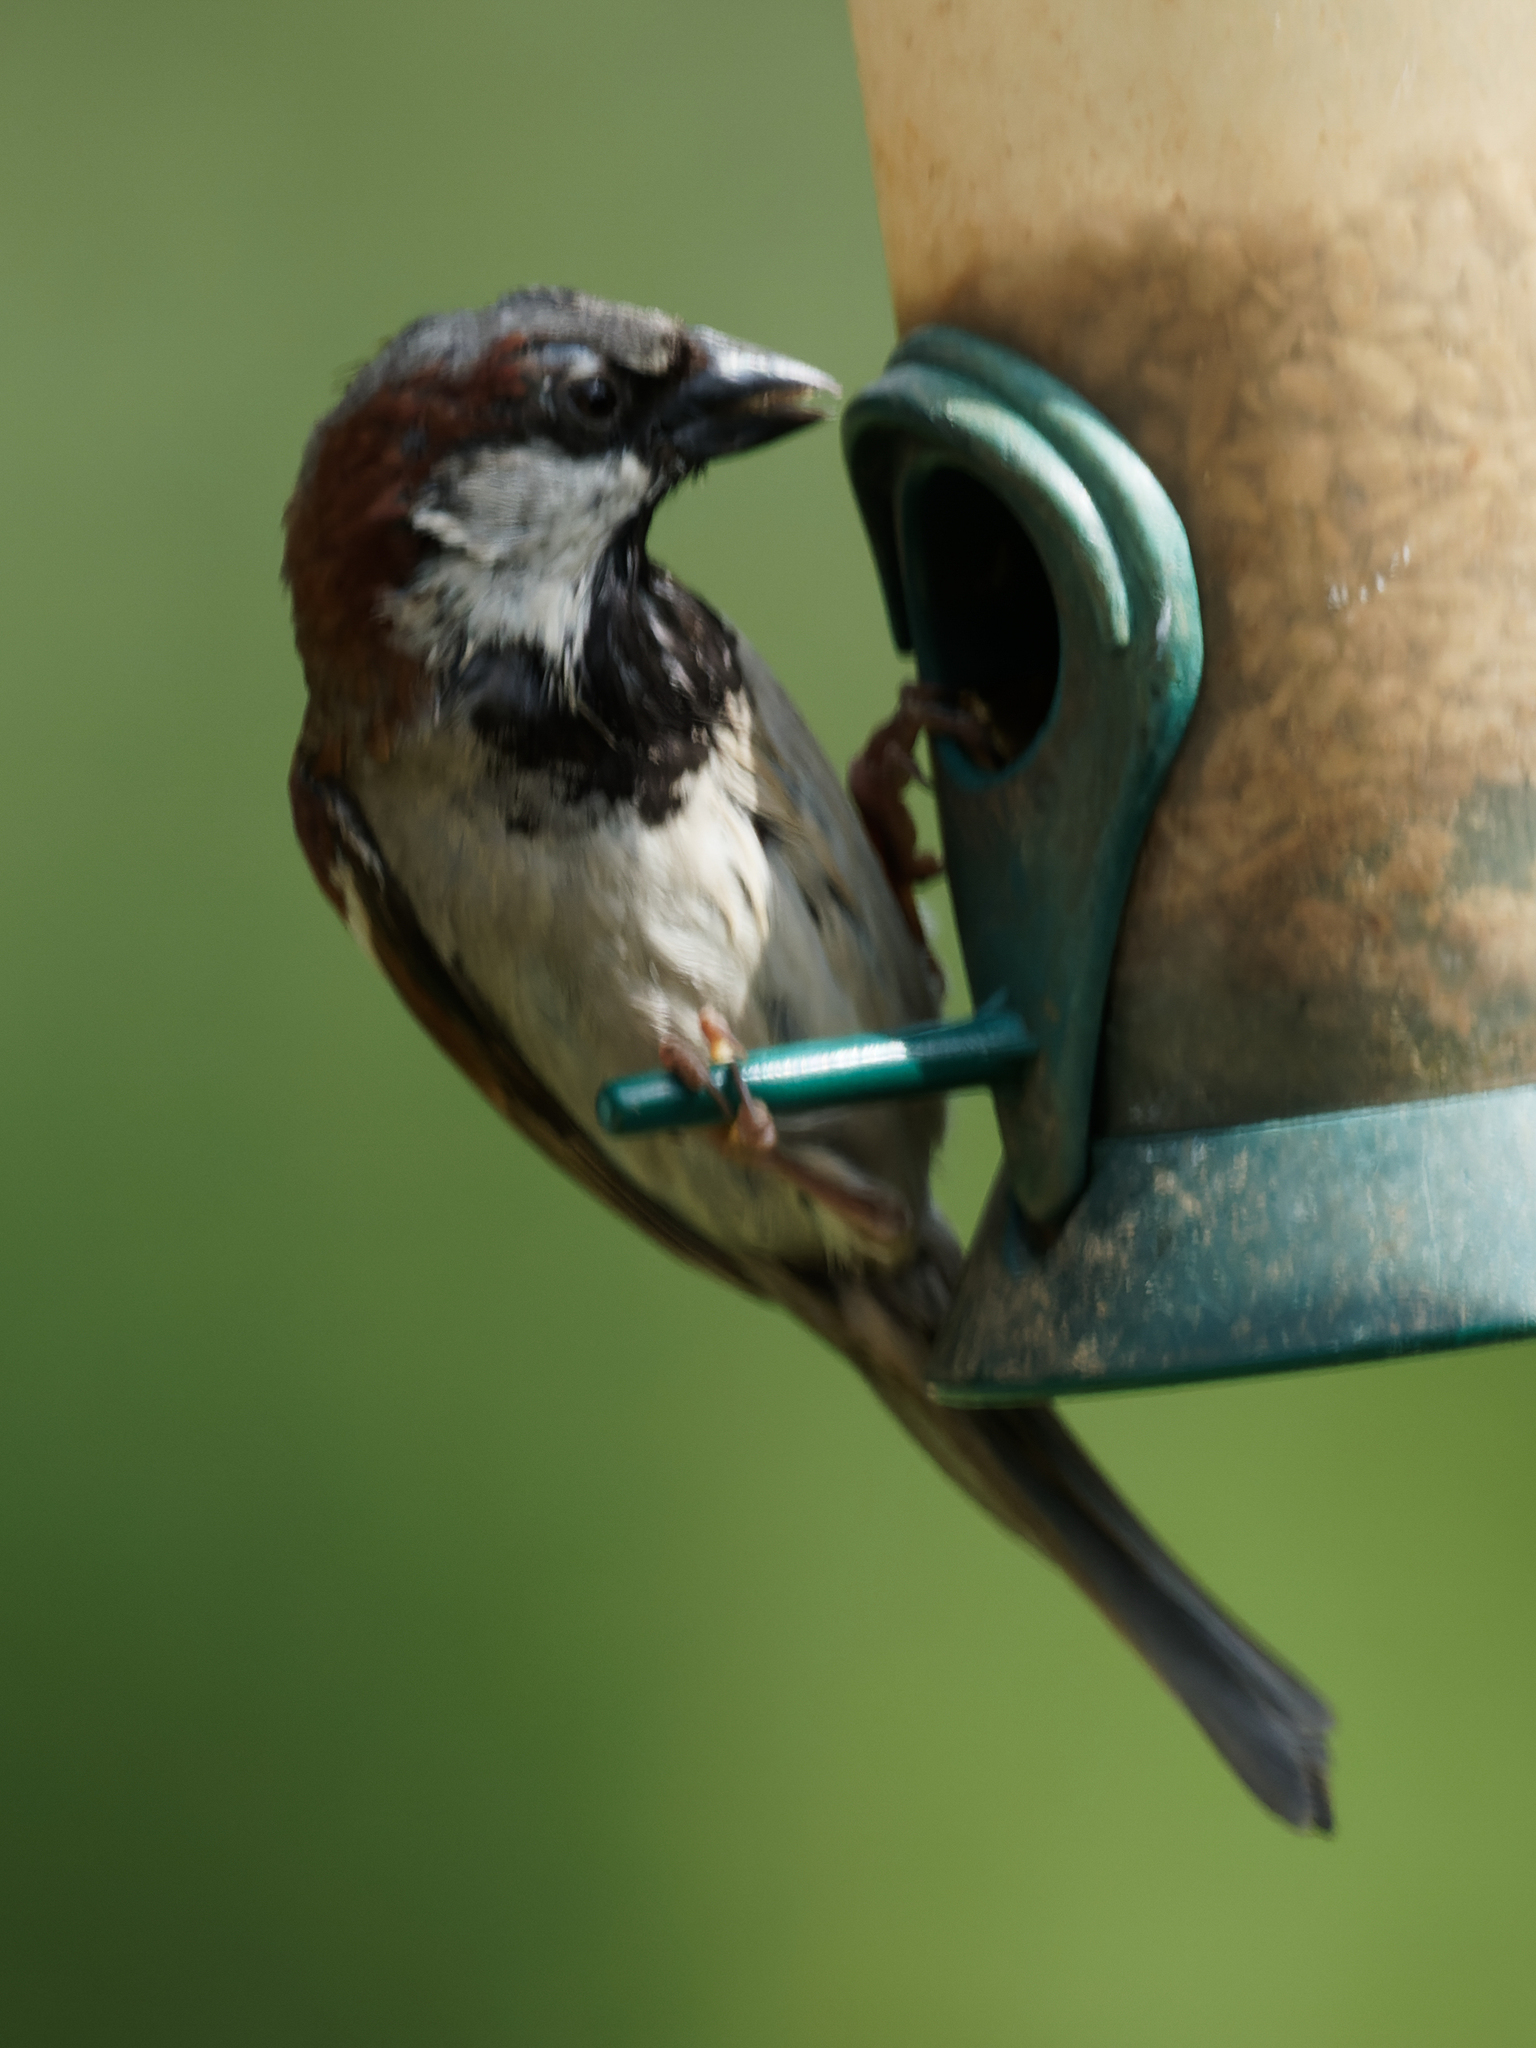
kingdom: Animalia
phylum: Chordata
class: Aves
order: Passeriformes
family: Passeridae
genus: Passer
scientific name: Passer domesticus
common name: House sparrow
